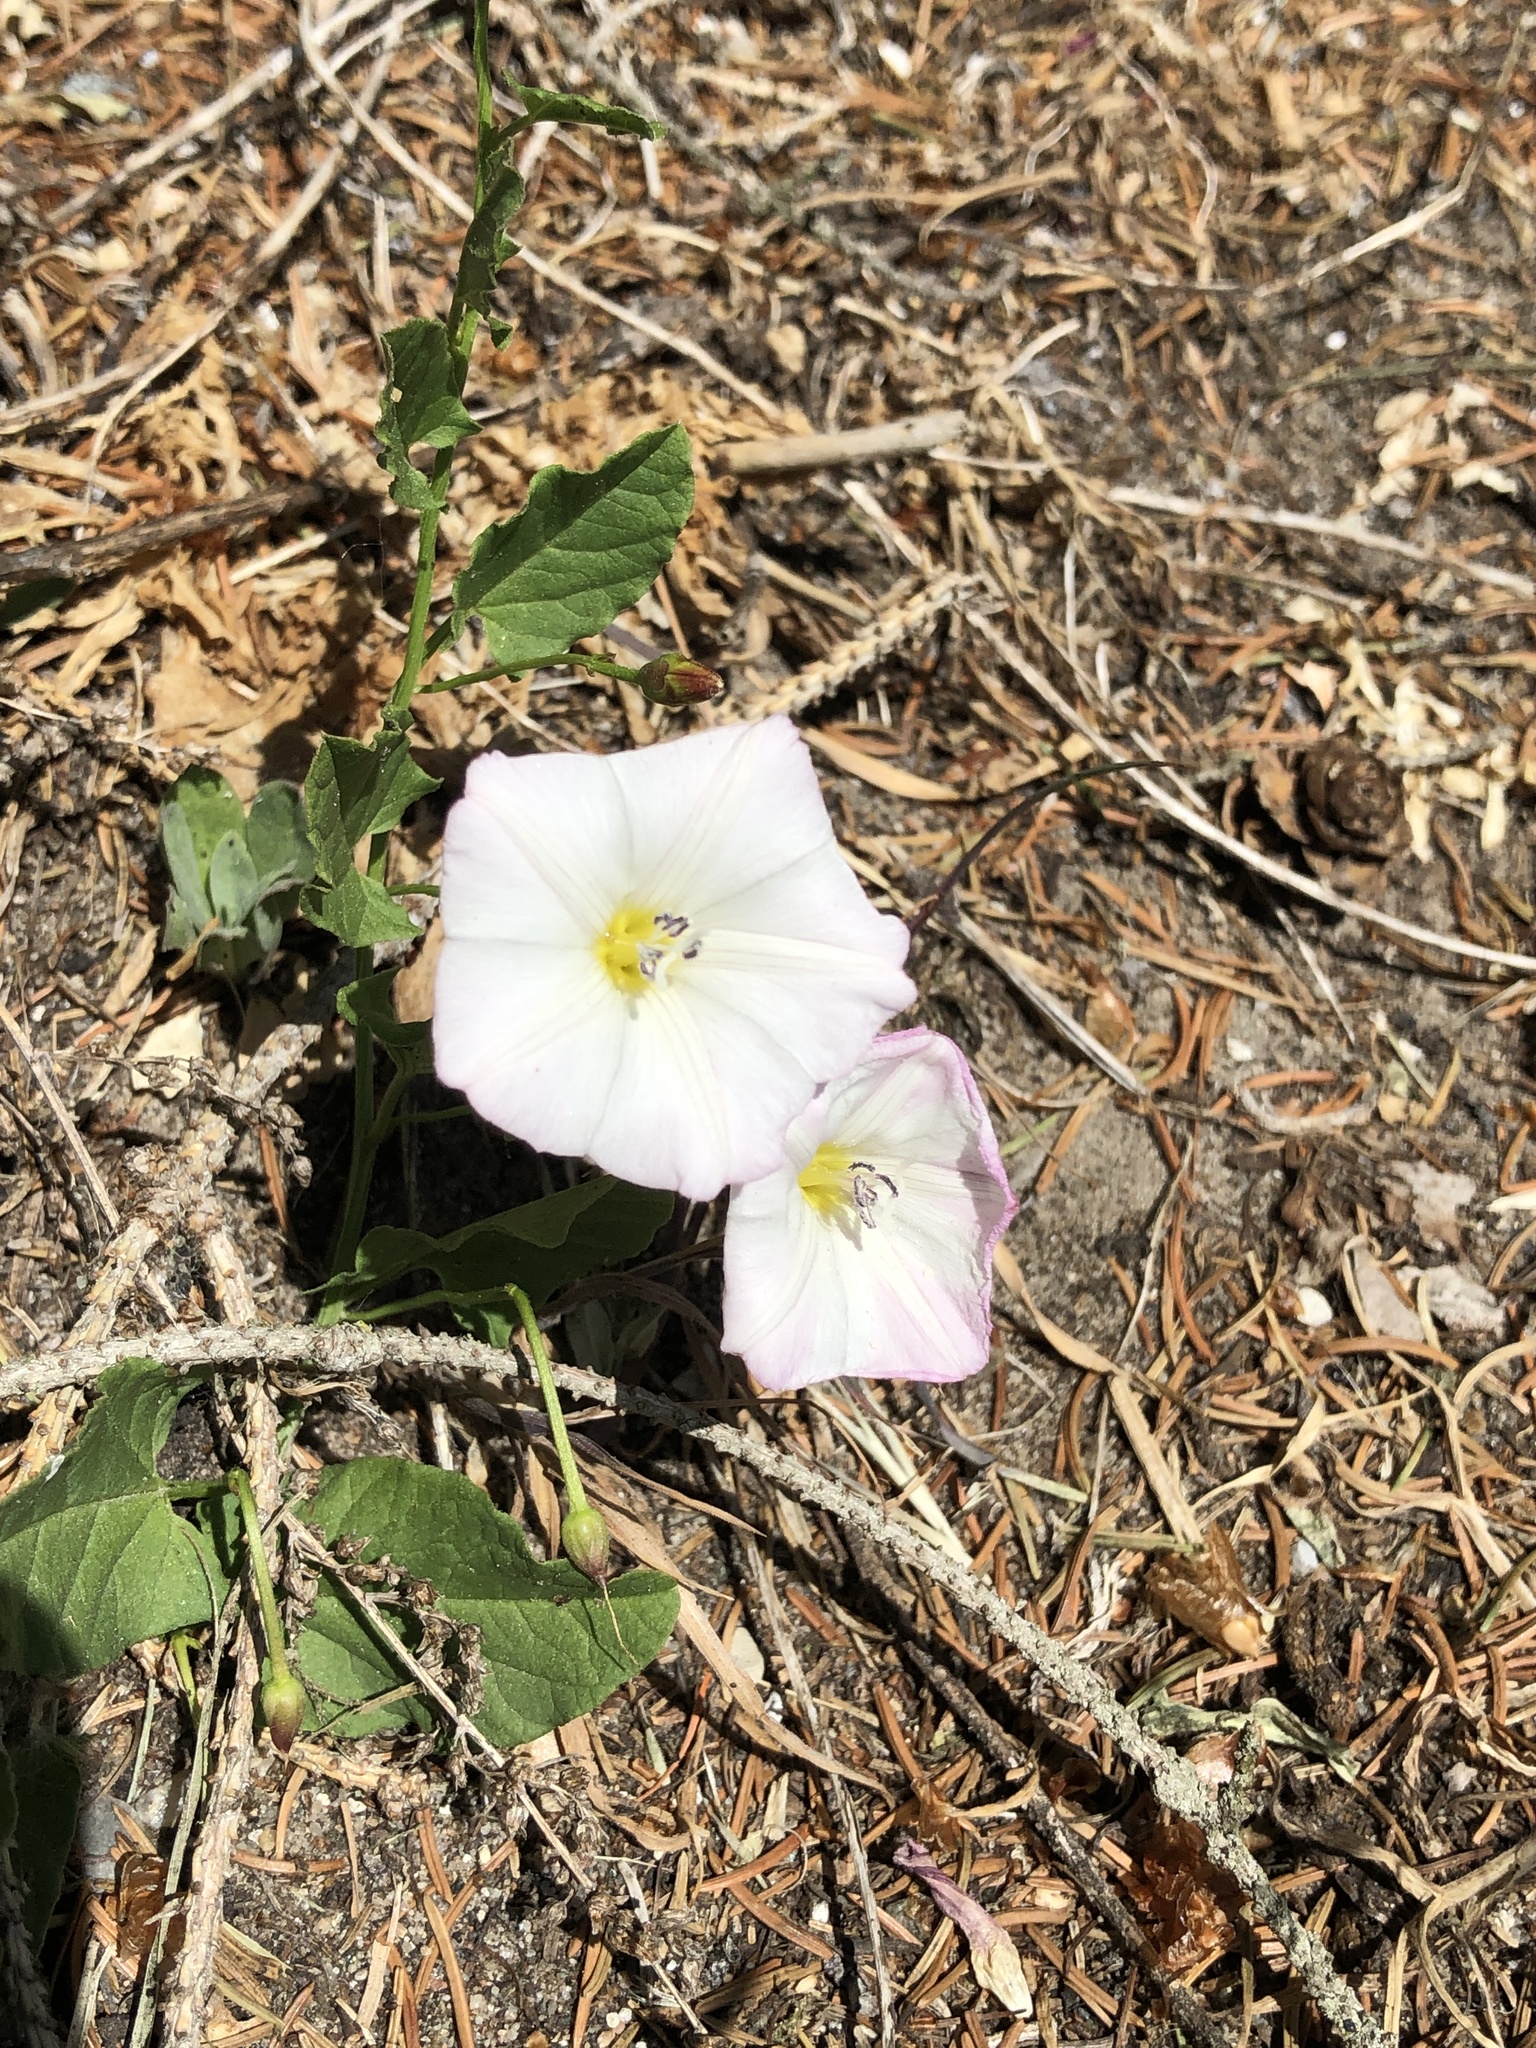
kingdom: Plantae
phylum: Tracheophyta
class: Magnoliopsida
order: Solanales
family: Convolvulaceae
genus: Convolvulus
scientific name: Convolvulus arvensis
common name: Field bindweed
